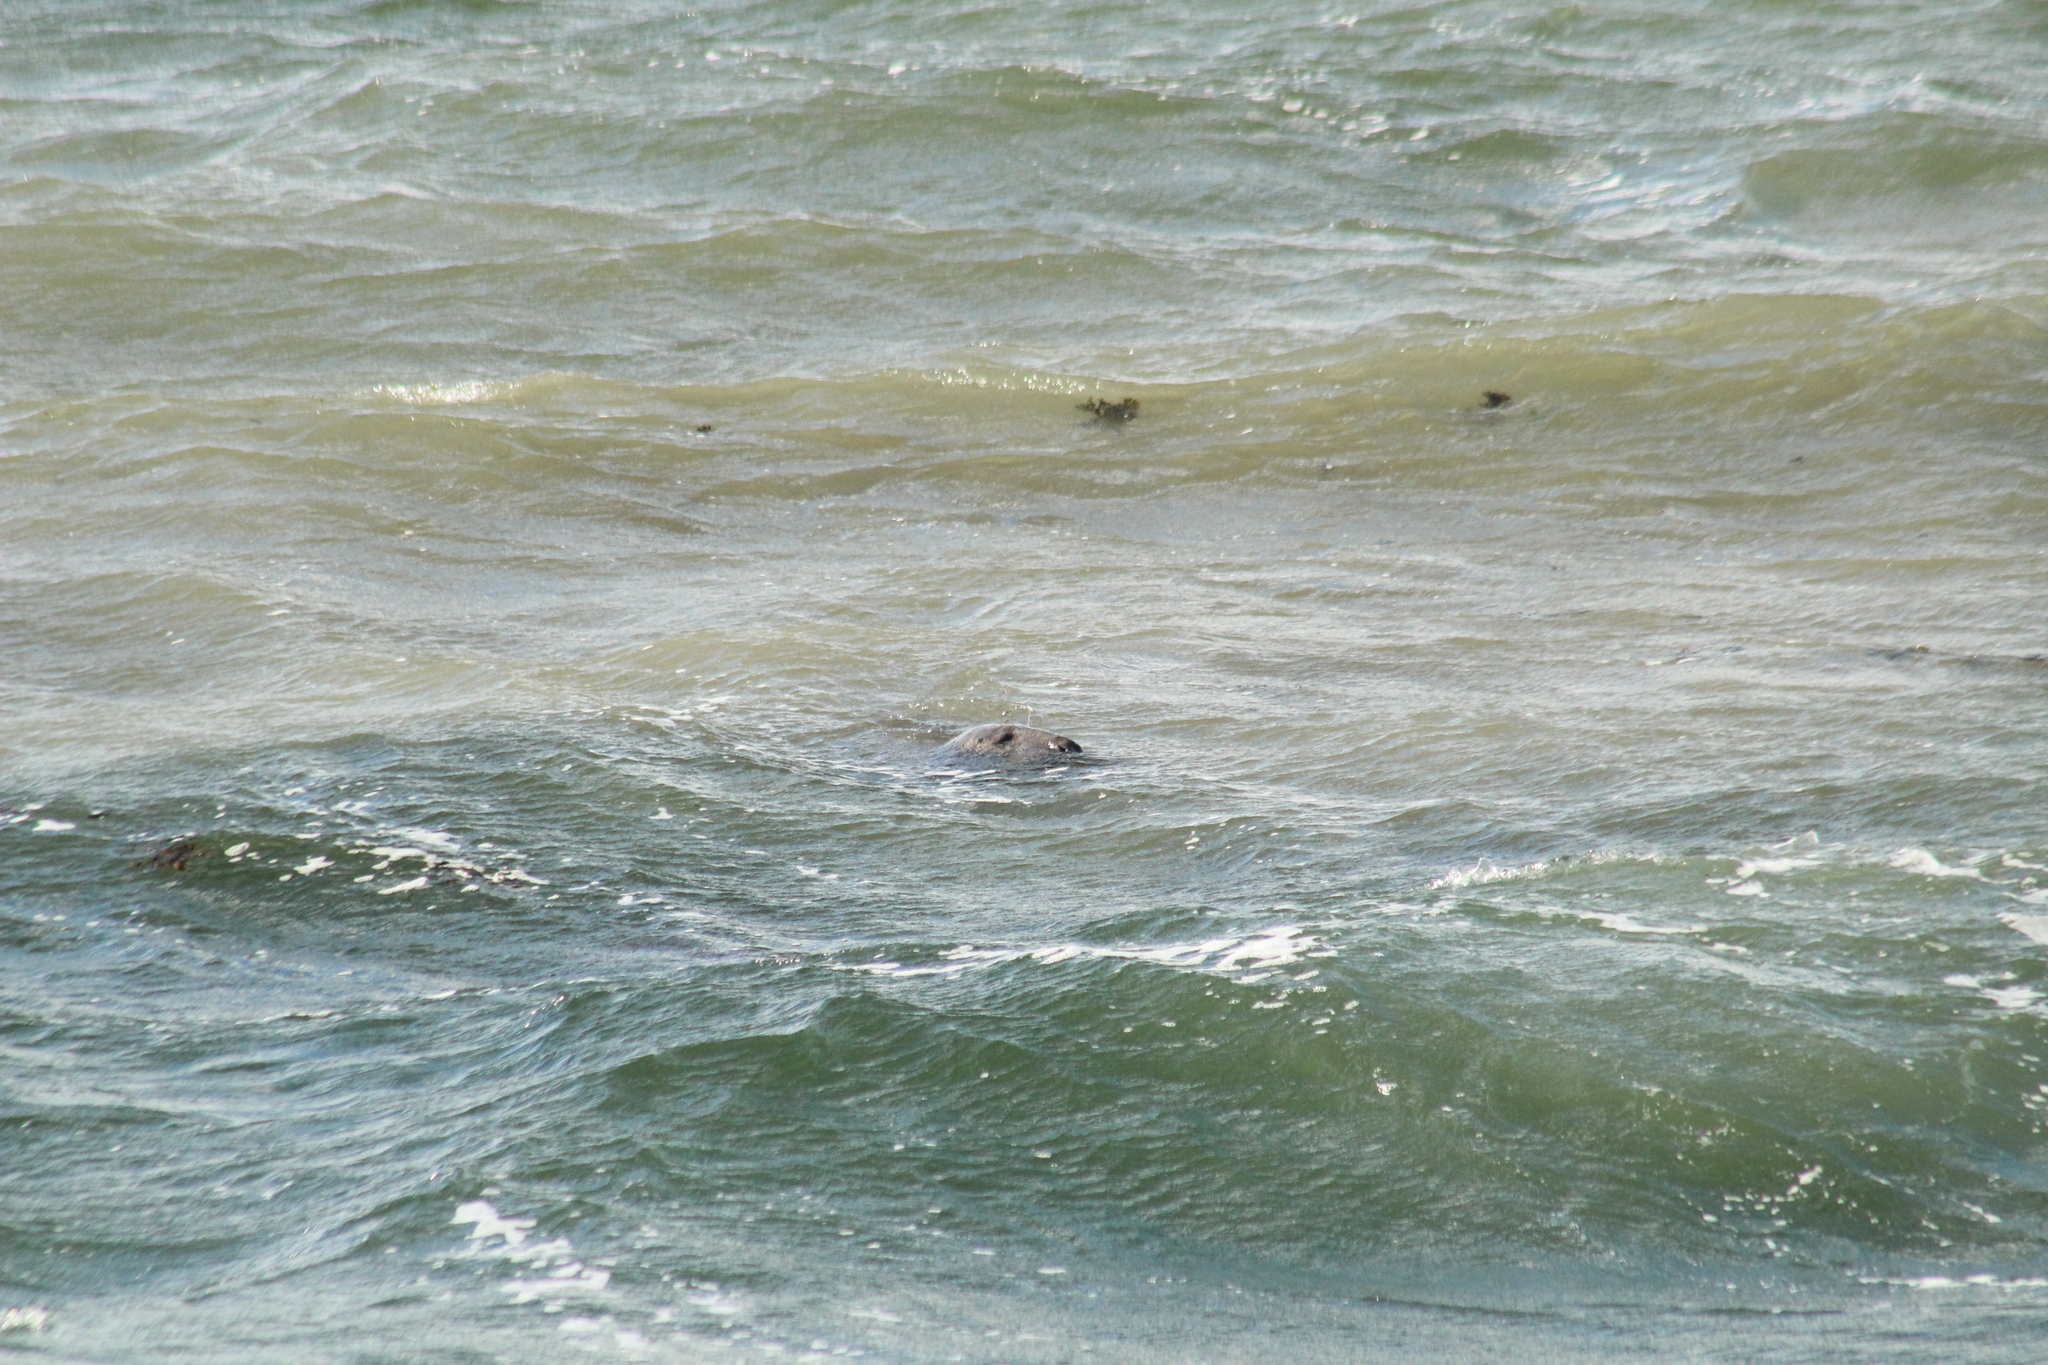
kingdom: Animalia
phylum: Chordata
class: Mammalia
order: Carnivora
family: Phocidae
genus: Halichoerus
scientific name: Halichoerus grypus
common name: Grey seal
